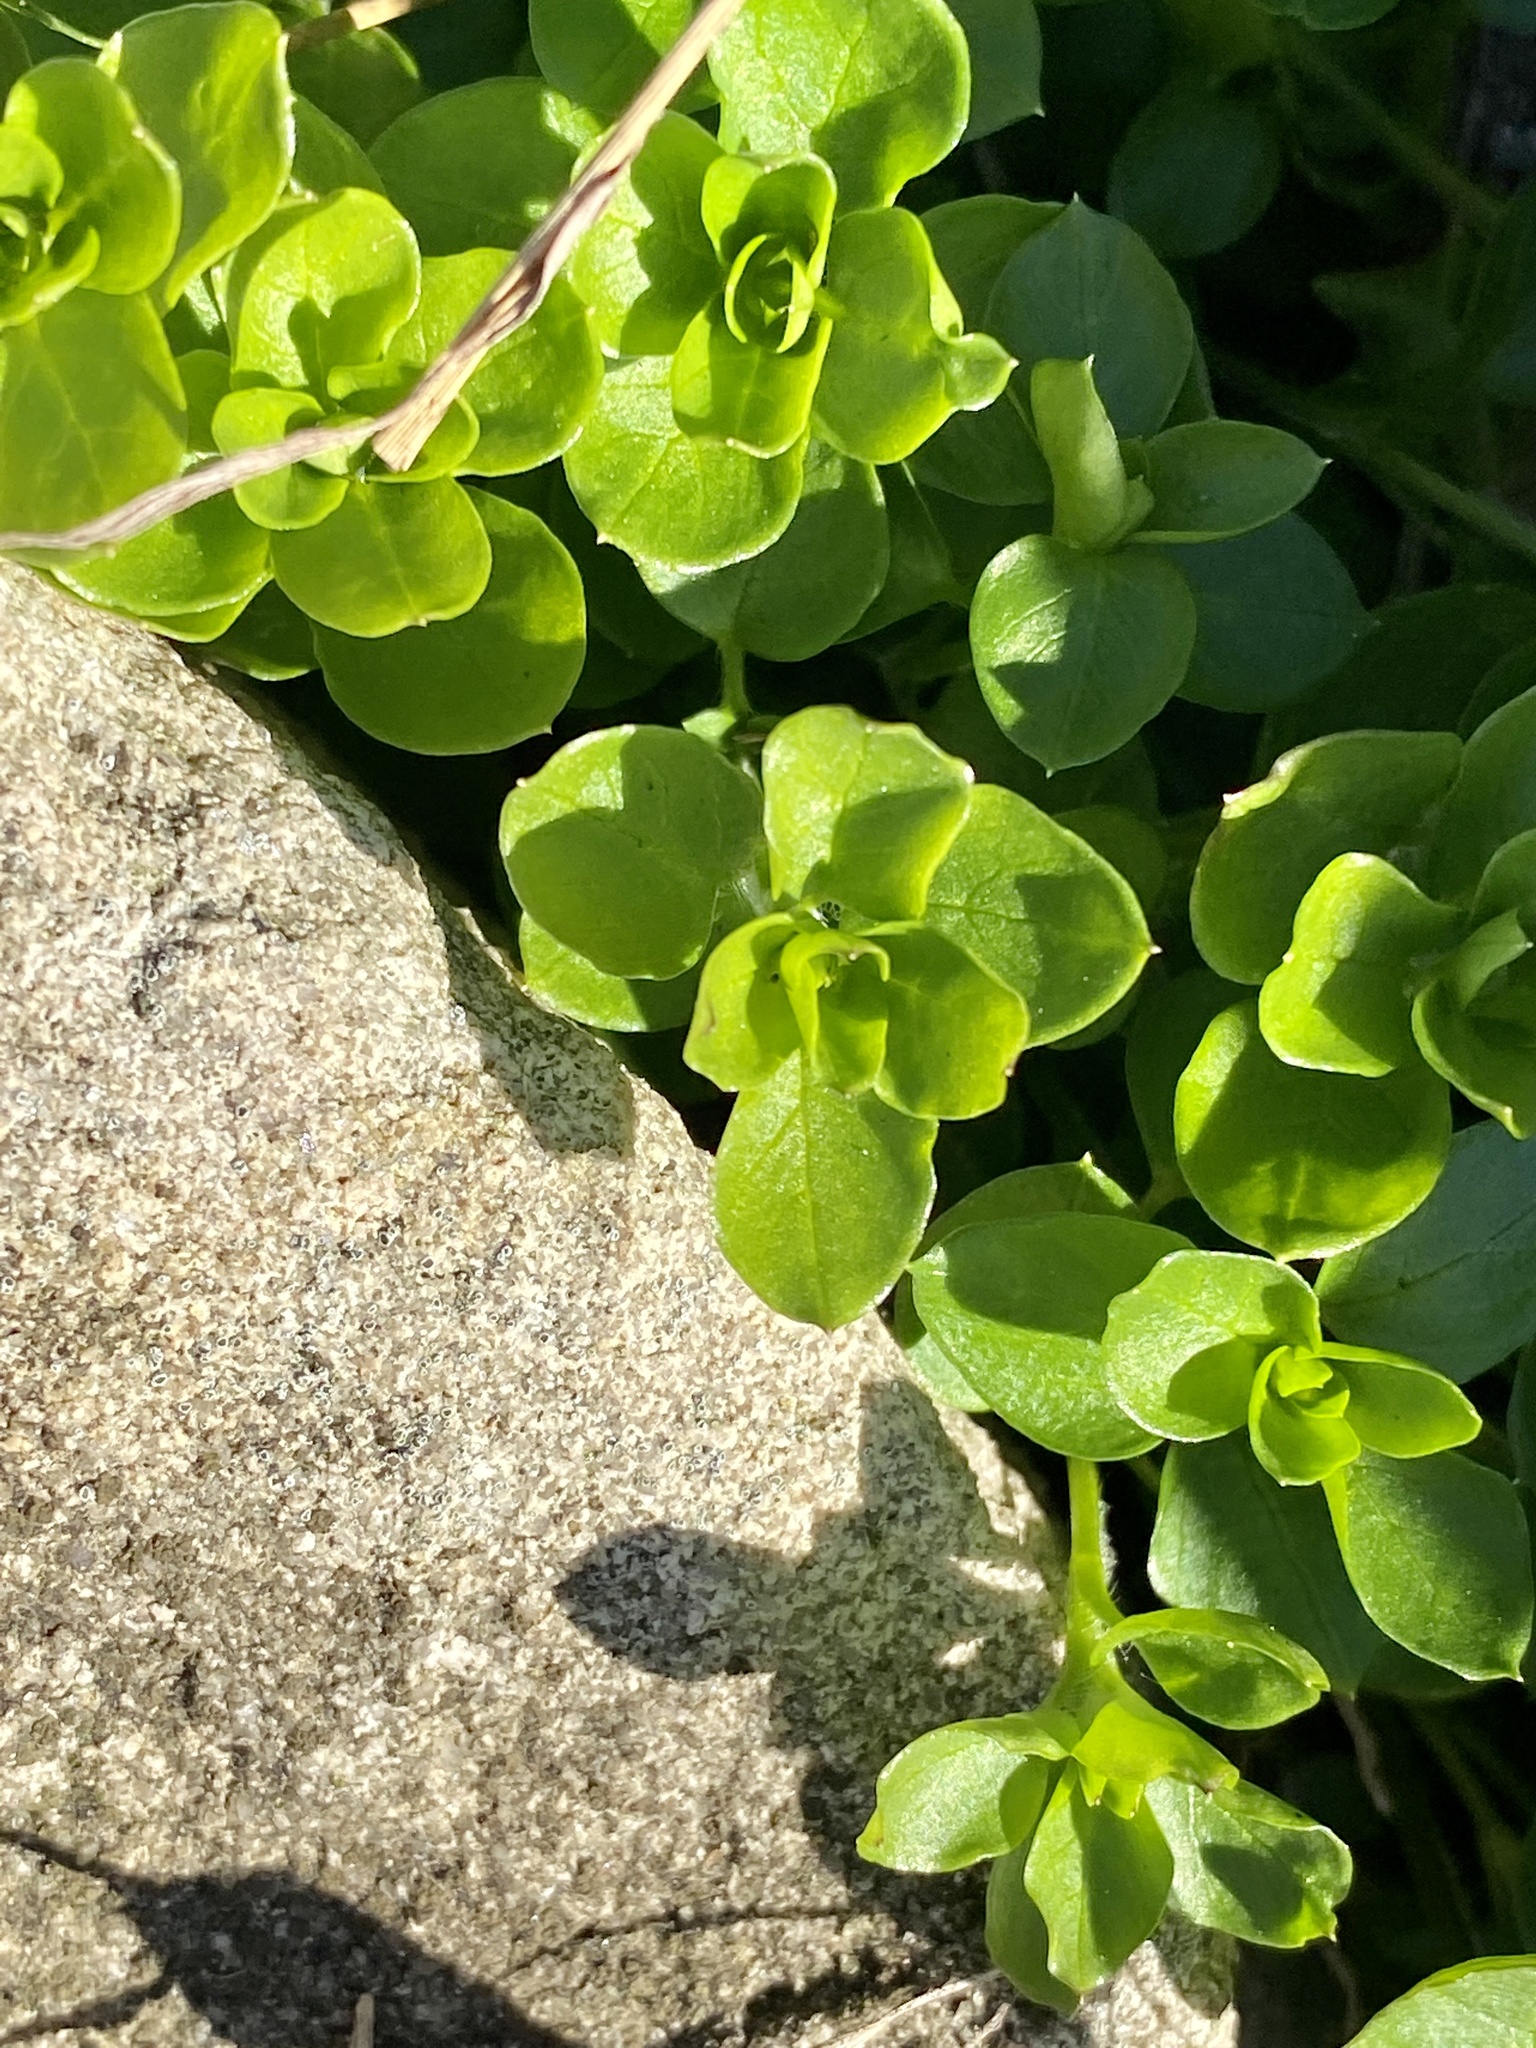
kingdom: Plantae
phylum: Tracheophyta
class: Magnoliopsida
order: Caryophyllales
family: Caryophyllaceae
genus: Stellaria
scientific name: Stellaria media
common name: Common chickweed
